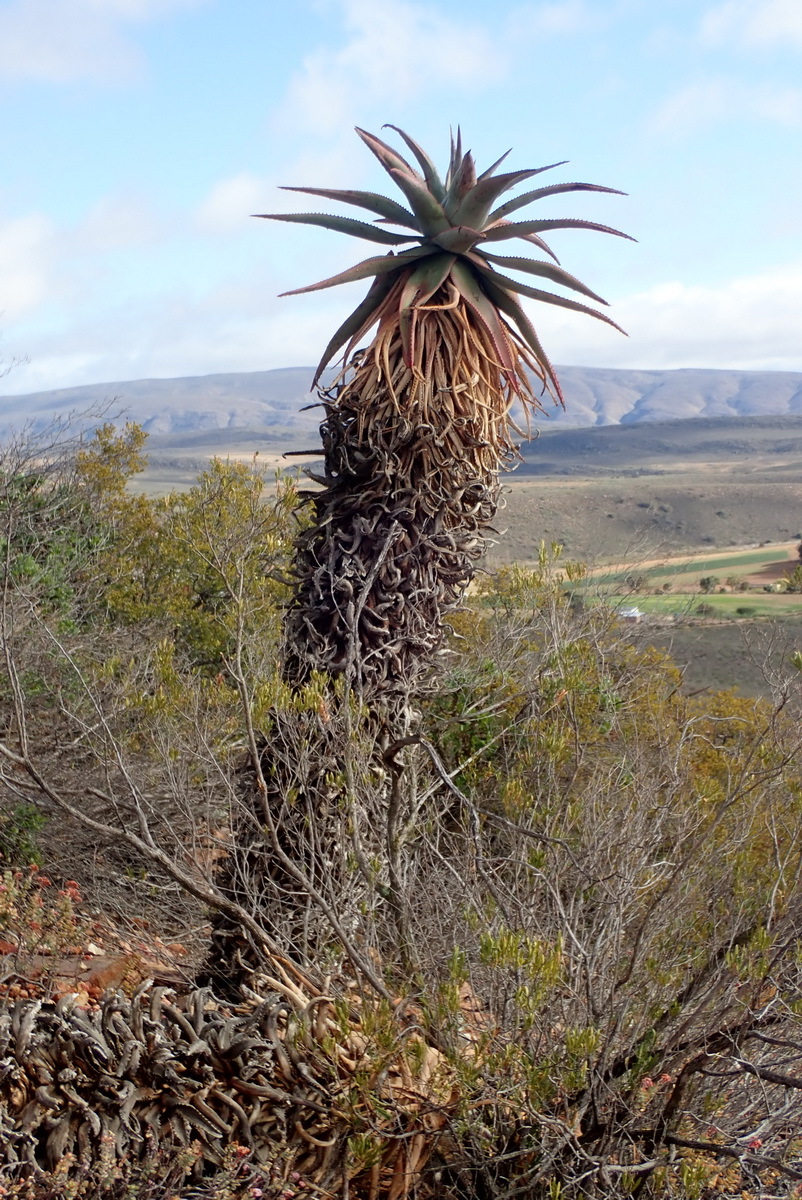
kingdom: Plantae
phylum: Tracheophyta
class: Liliopsida
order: Asparagales
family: Asphodelaceae
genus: Aloe
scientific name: Aloe ferox
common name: Bitter aloe
